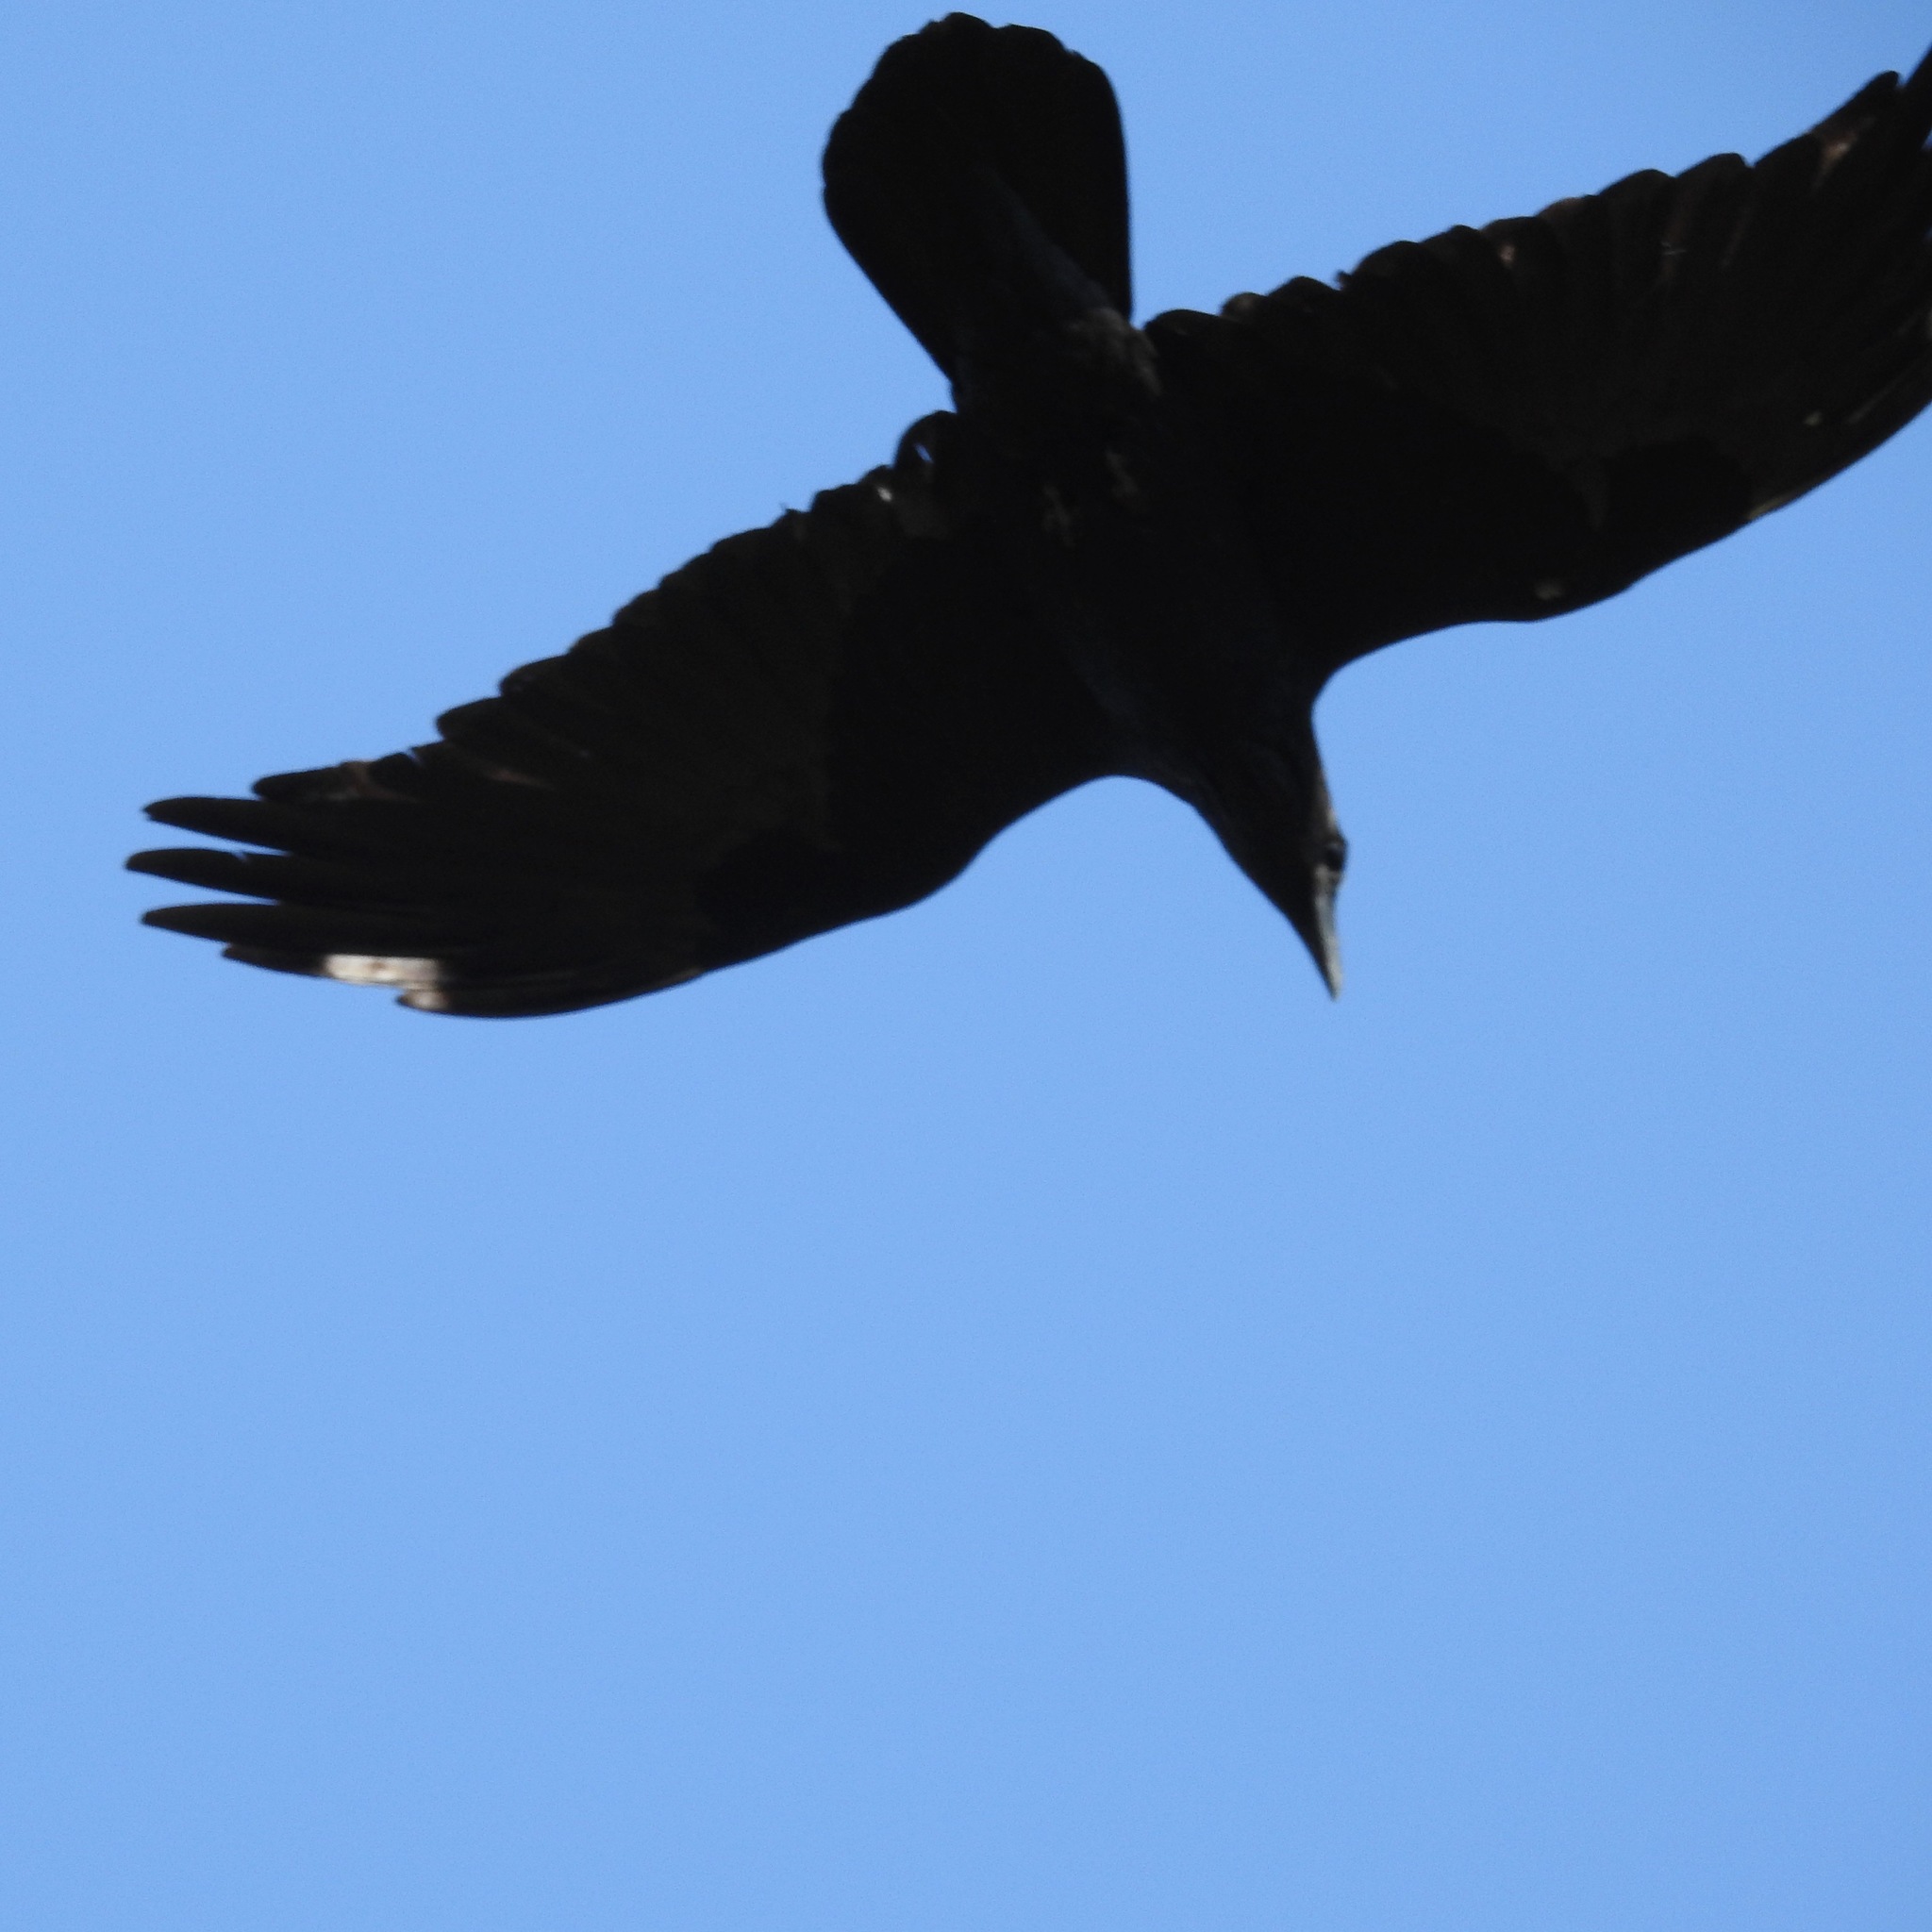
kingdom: Animalia
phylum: Chordata
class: Aves
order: Passeriformes
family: Corvidae
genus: Corvus
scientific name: Corvus corax
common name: Common raven
